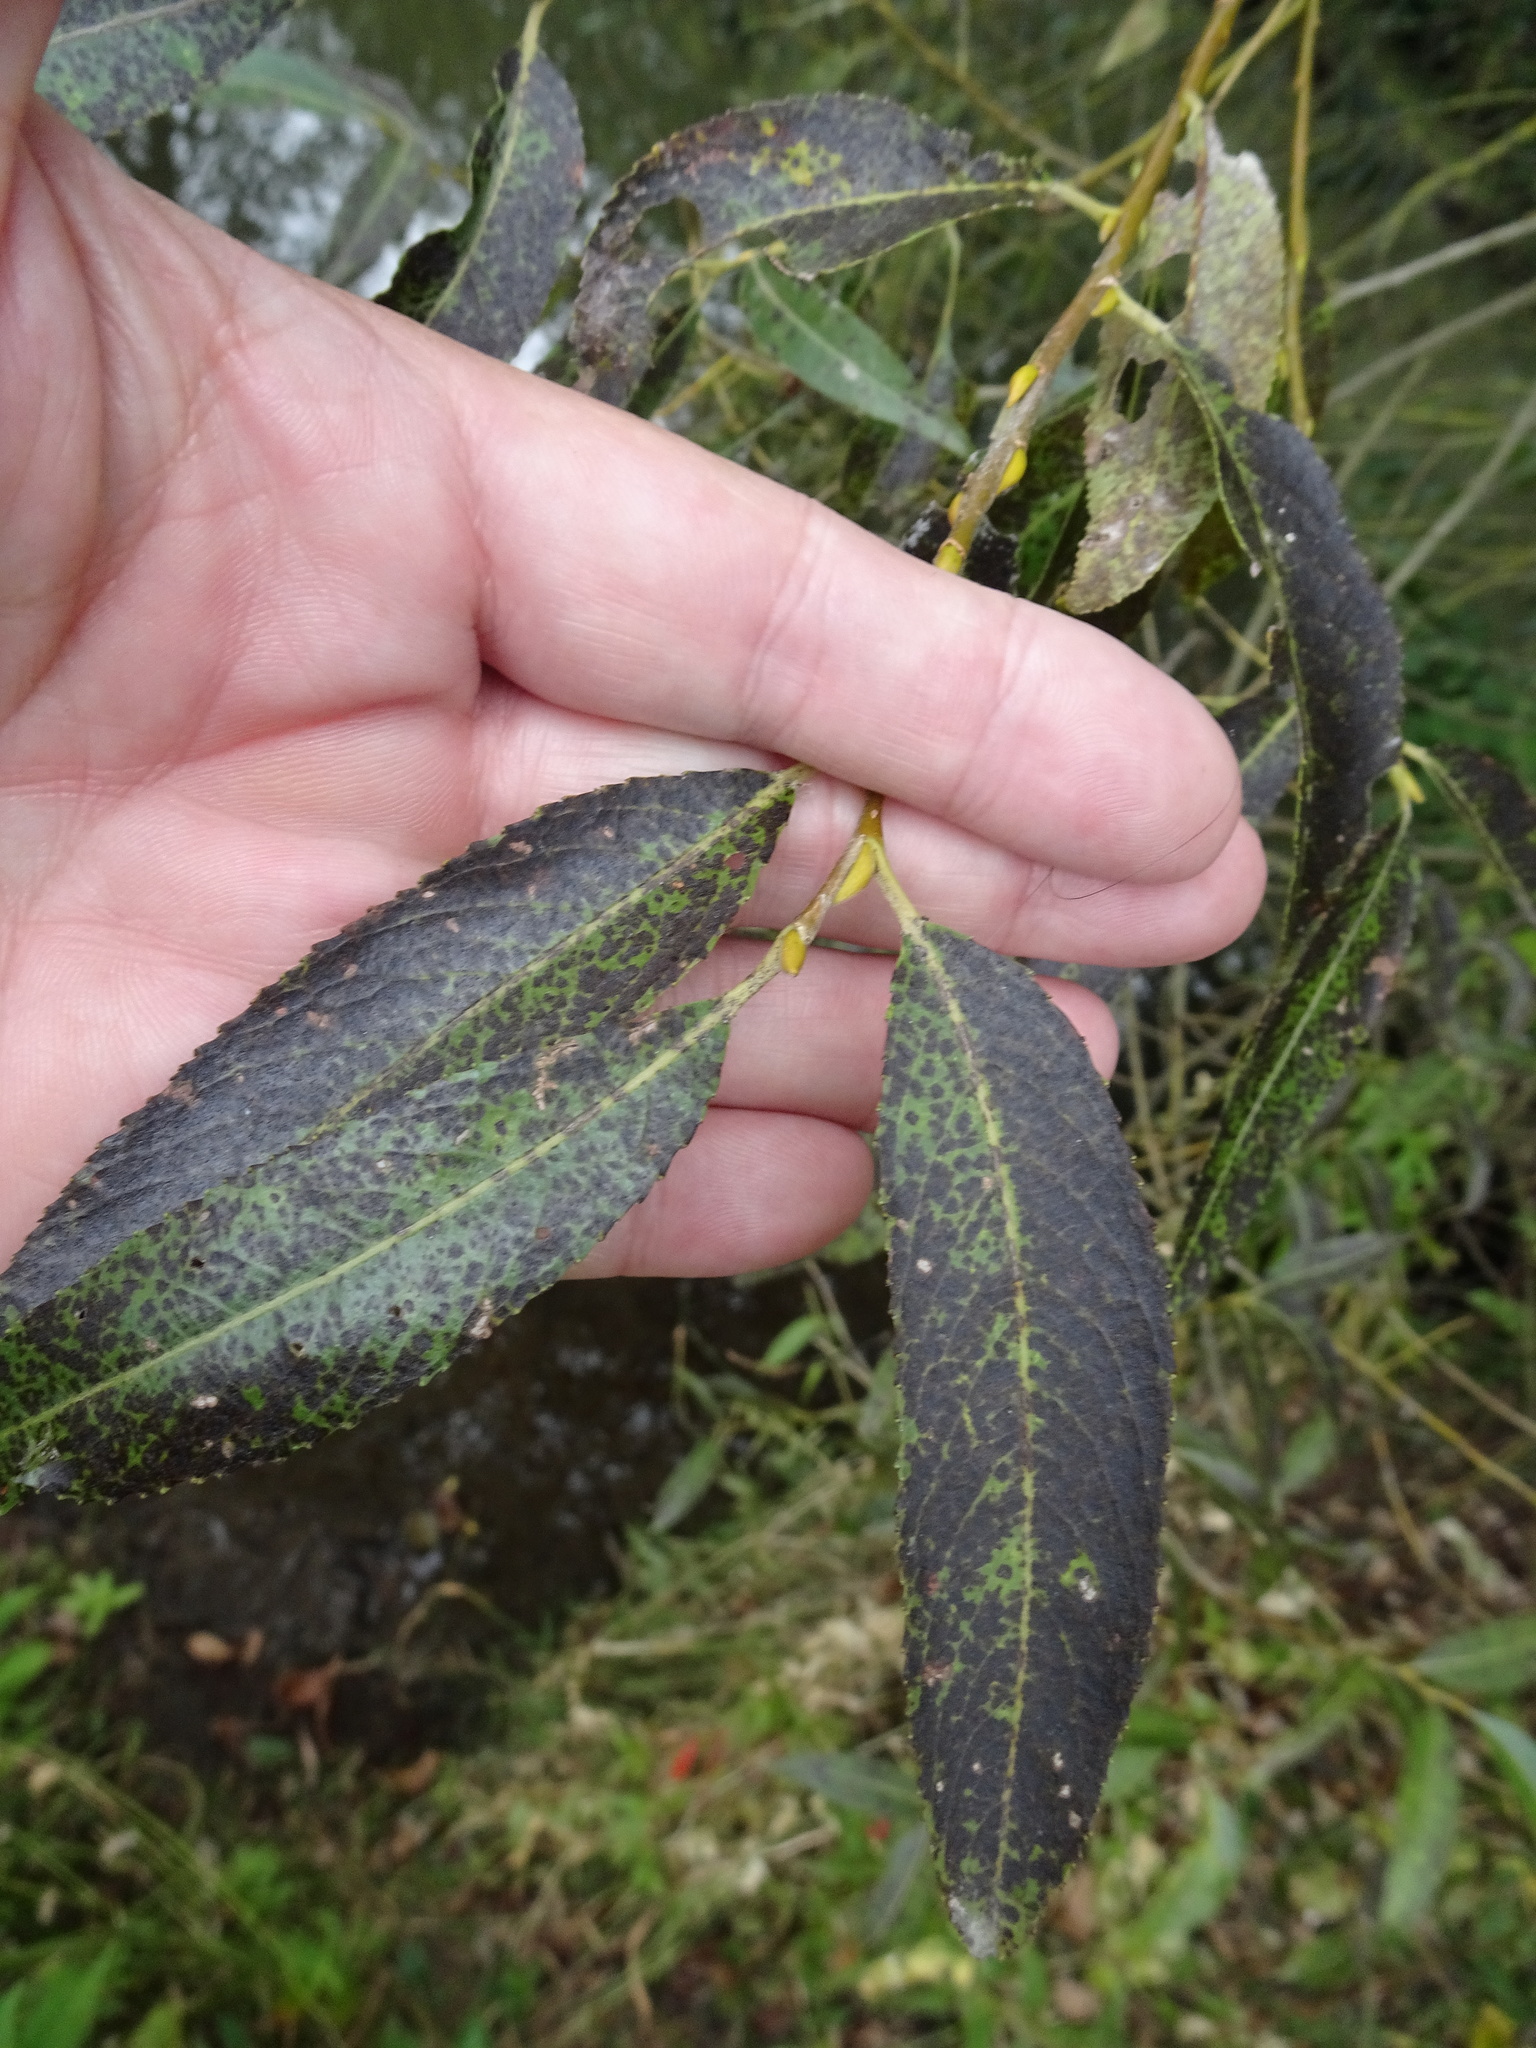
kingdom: Plantae
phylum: Tracheophyta
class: Magnoliopsida
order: Malpighiales
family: Salicaceae
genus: Salix
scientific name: Salix alba
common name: White willow
